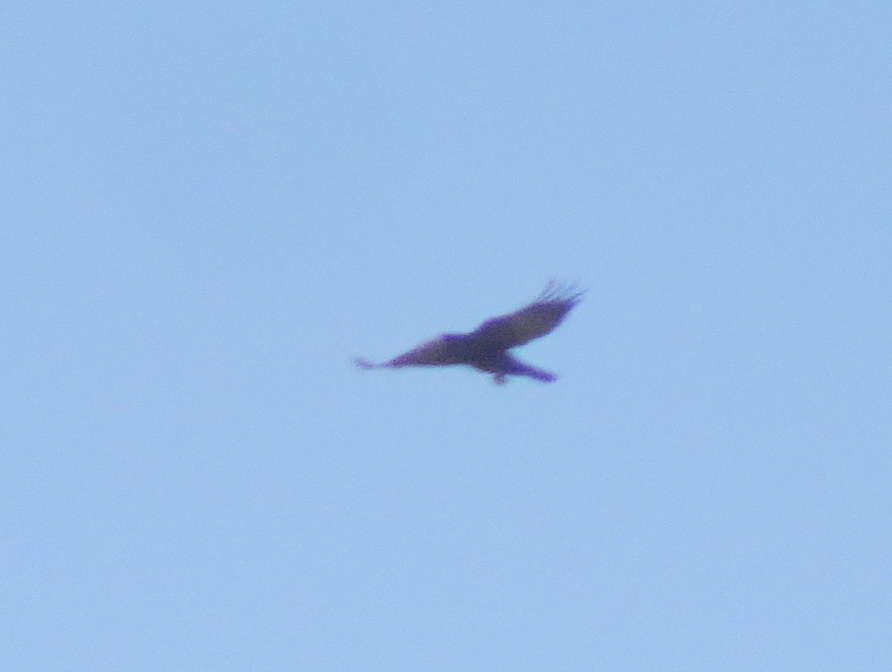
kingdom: Animalia
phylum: Chordata
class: Aves
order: Passeriformes
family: Corvidae
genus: Corvus
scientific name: Corvus frugilegus
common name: Rook
